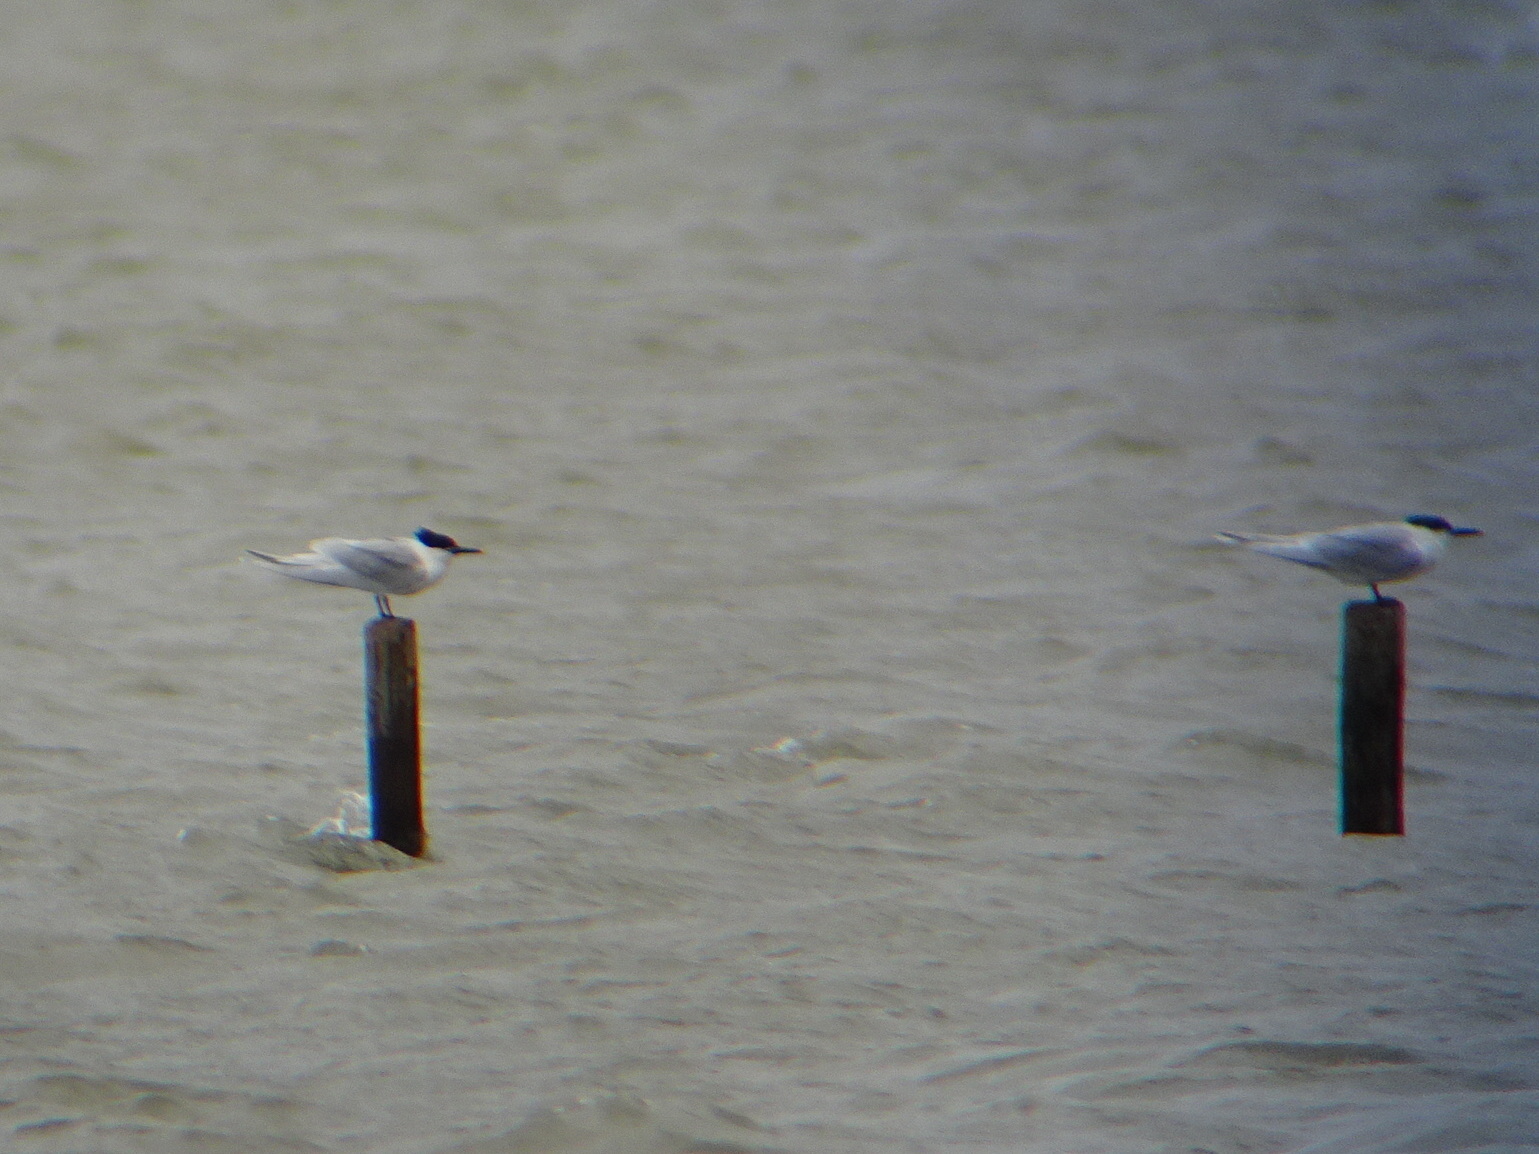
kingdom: Animalia
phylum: Chordata
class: Aves
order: Charadriiformes
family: Laridae
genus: Thalasseus
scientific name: Thalasseus sandvicensis
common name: Sandwich tern
